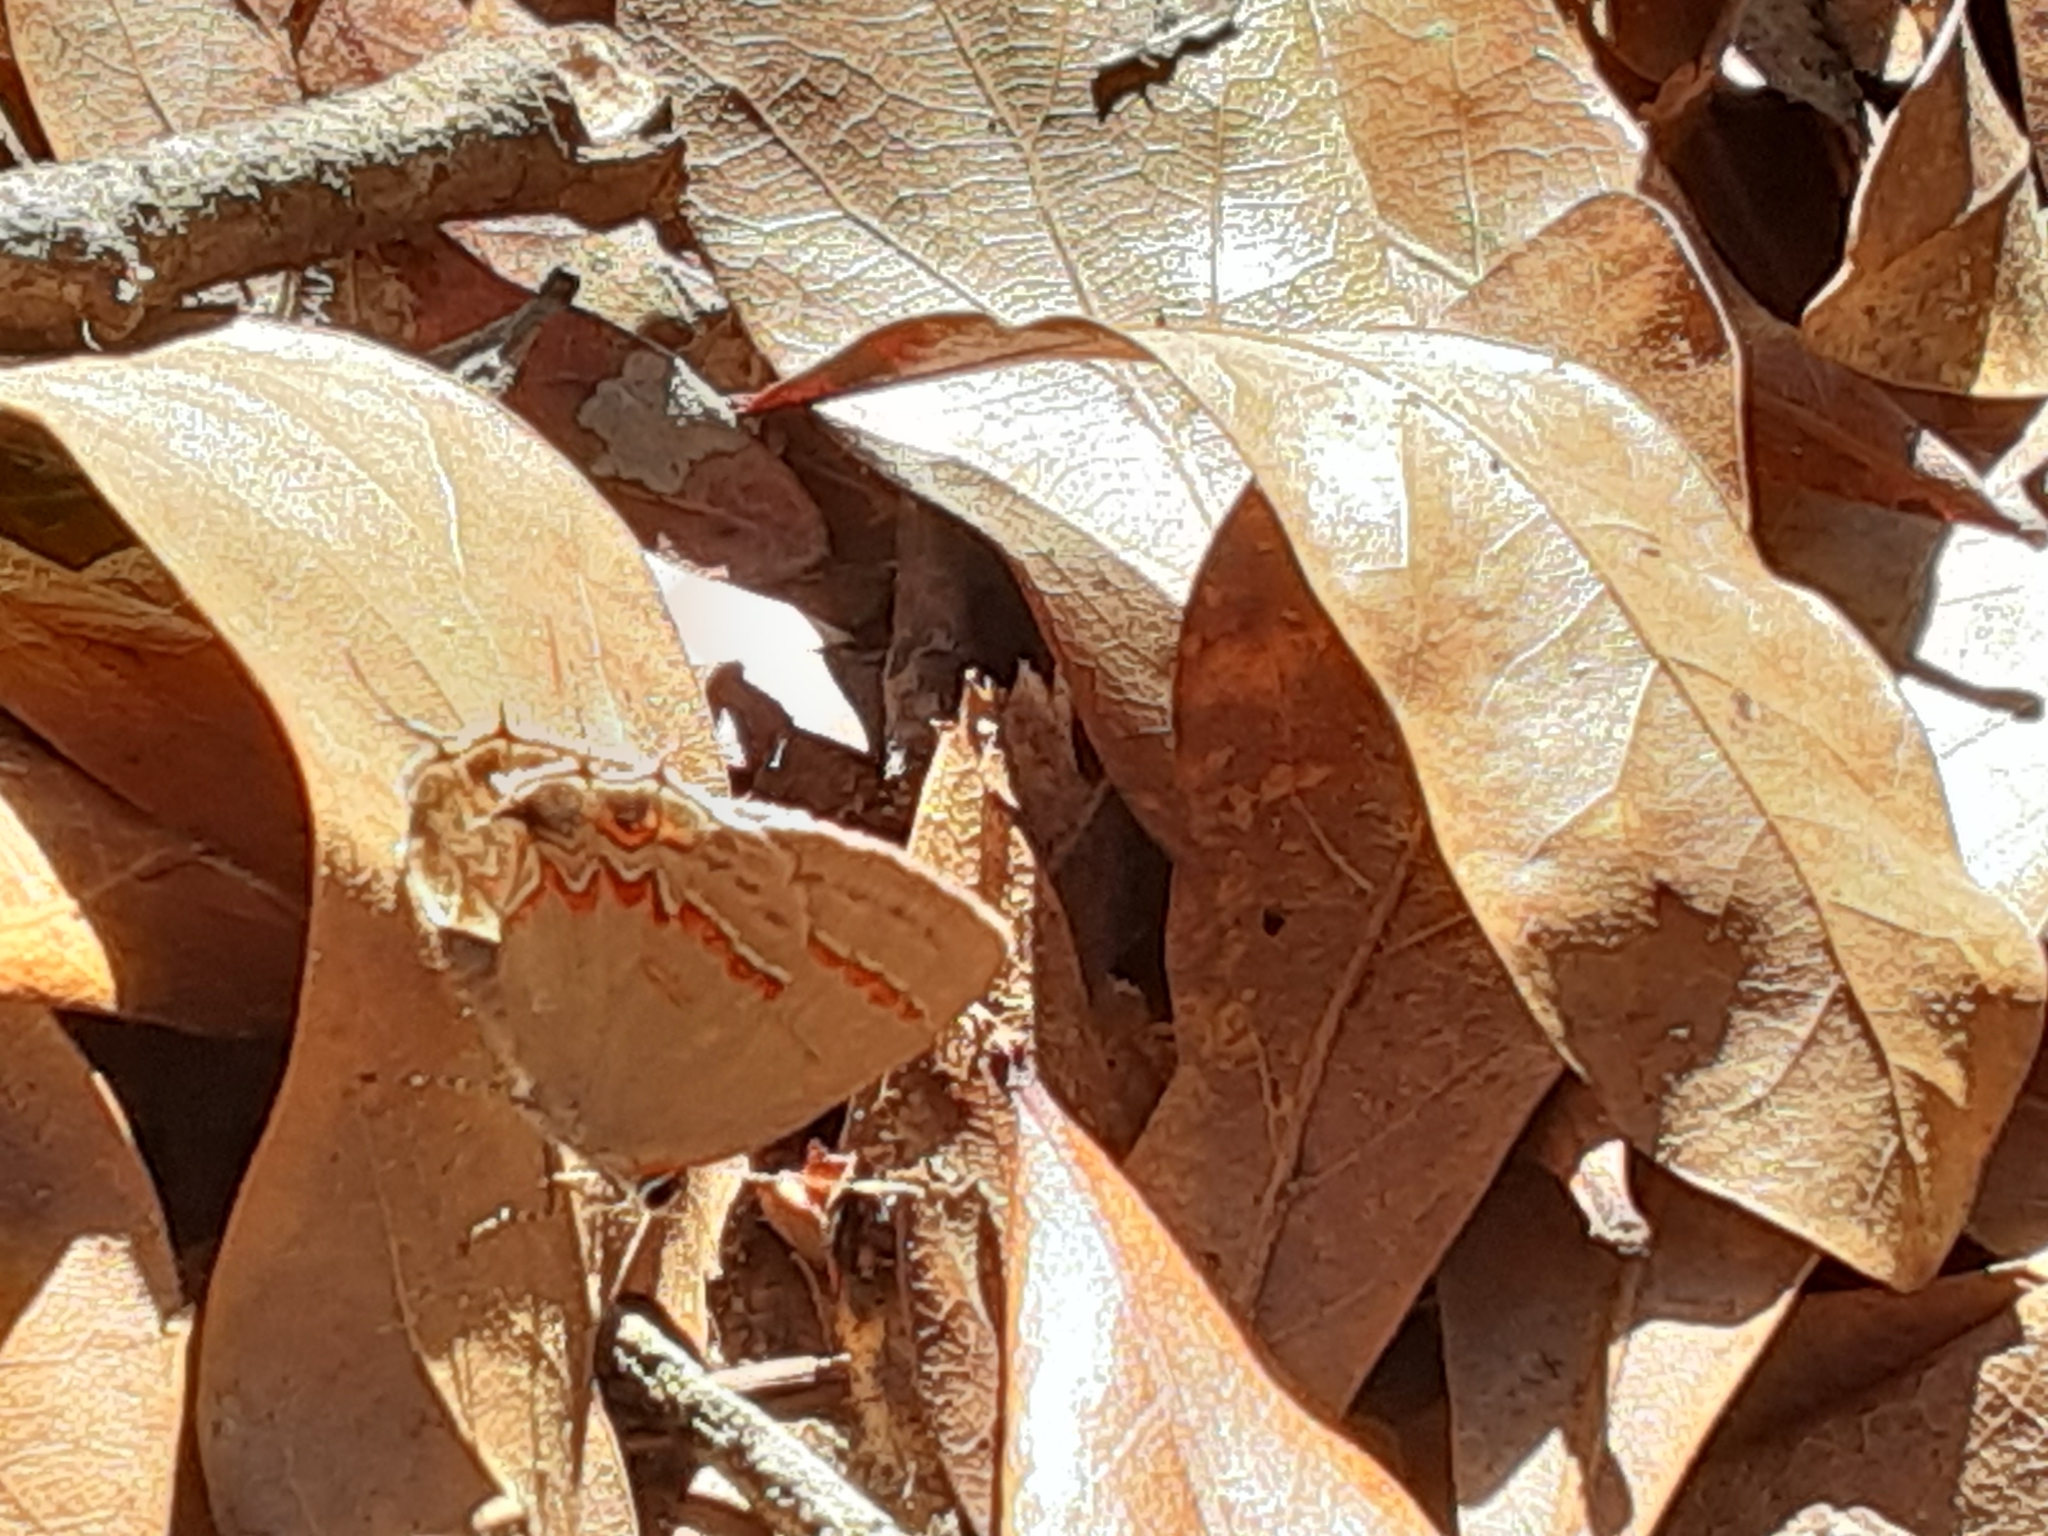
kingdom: Animalia
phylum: Arthropoda
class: Insecta
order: Lepidoptera
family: Lycaenidae
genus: Calycopis
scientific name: Calycopis cecrops
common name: Red-banded hairstreak
